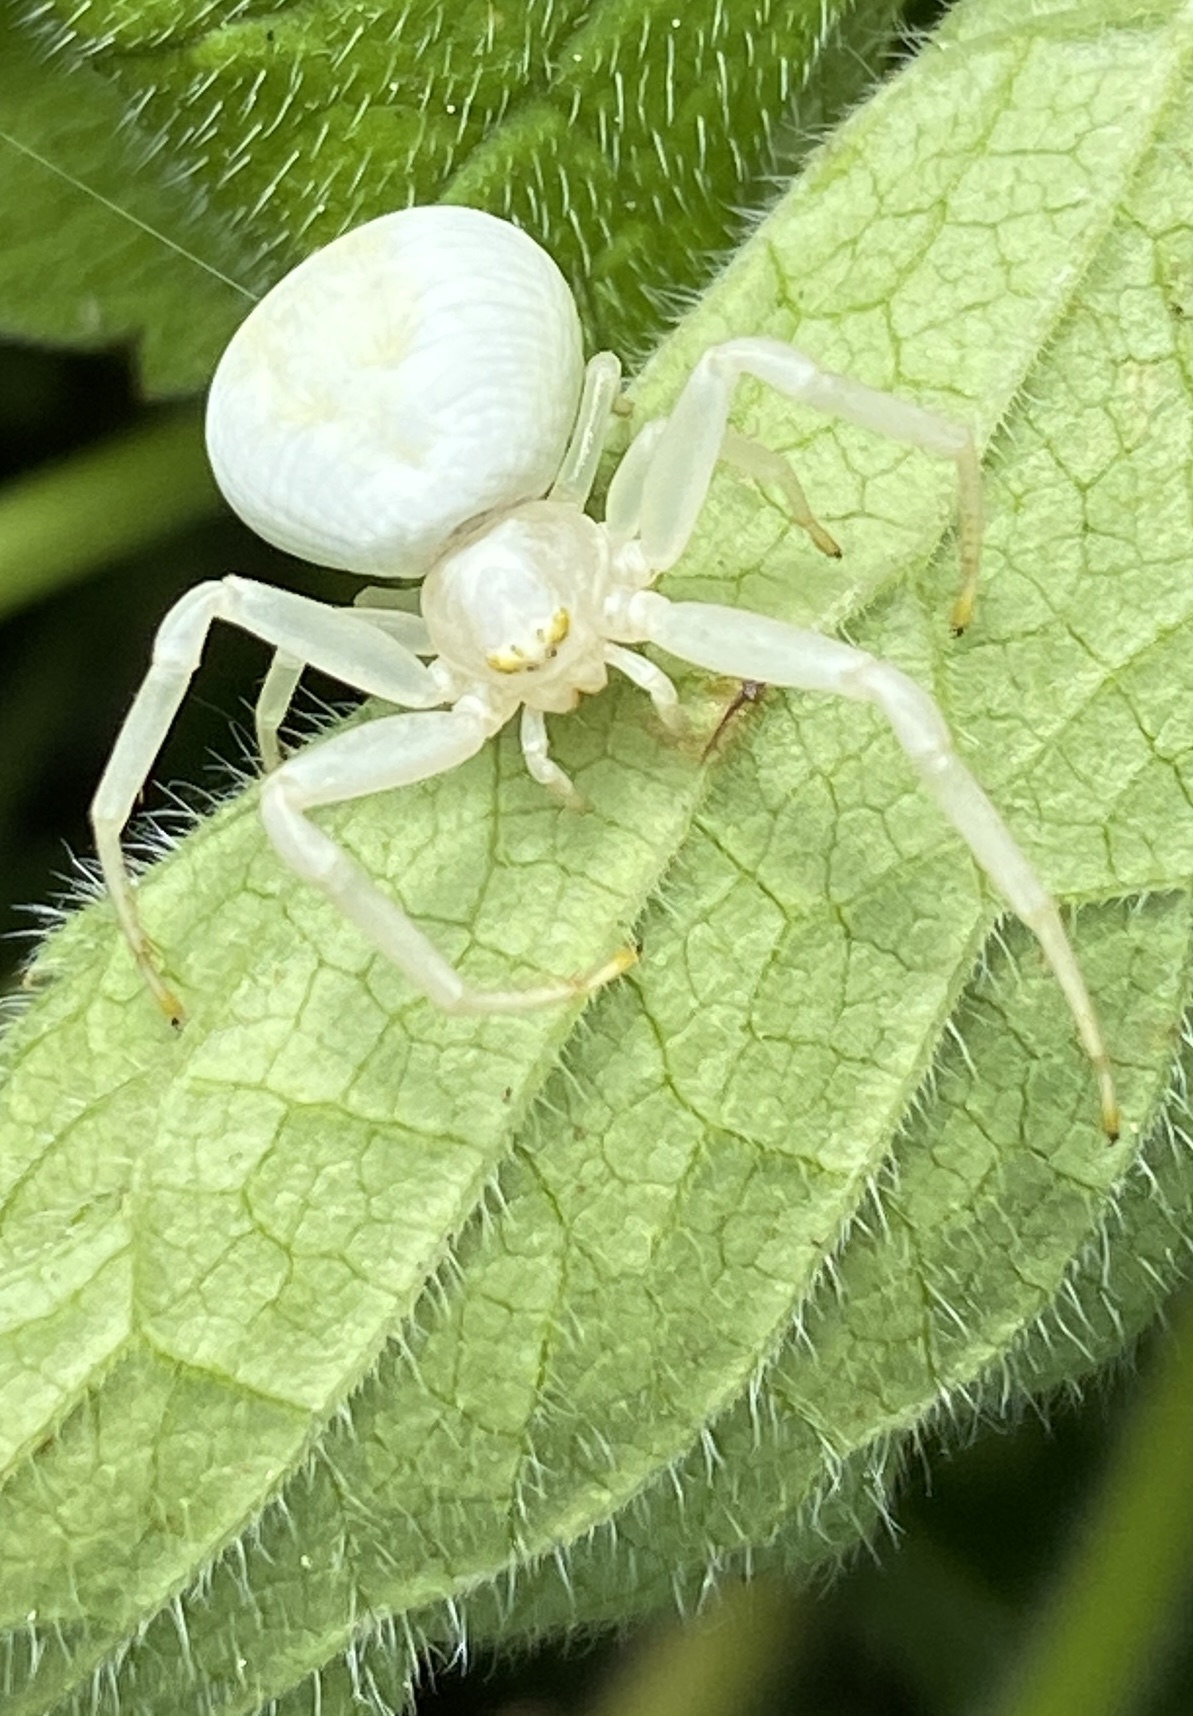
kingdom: Animalia
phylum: Arthropoda
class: Arachnida
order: Araneae
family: Thomisidae
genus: Misumena
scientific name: Misumena vatia
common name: Goldenrod crab spider
